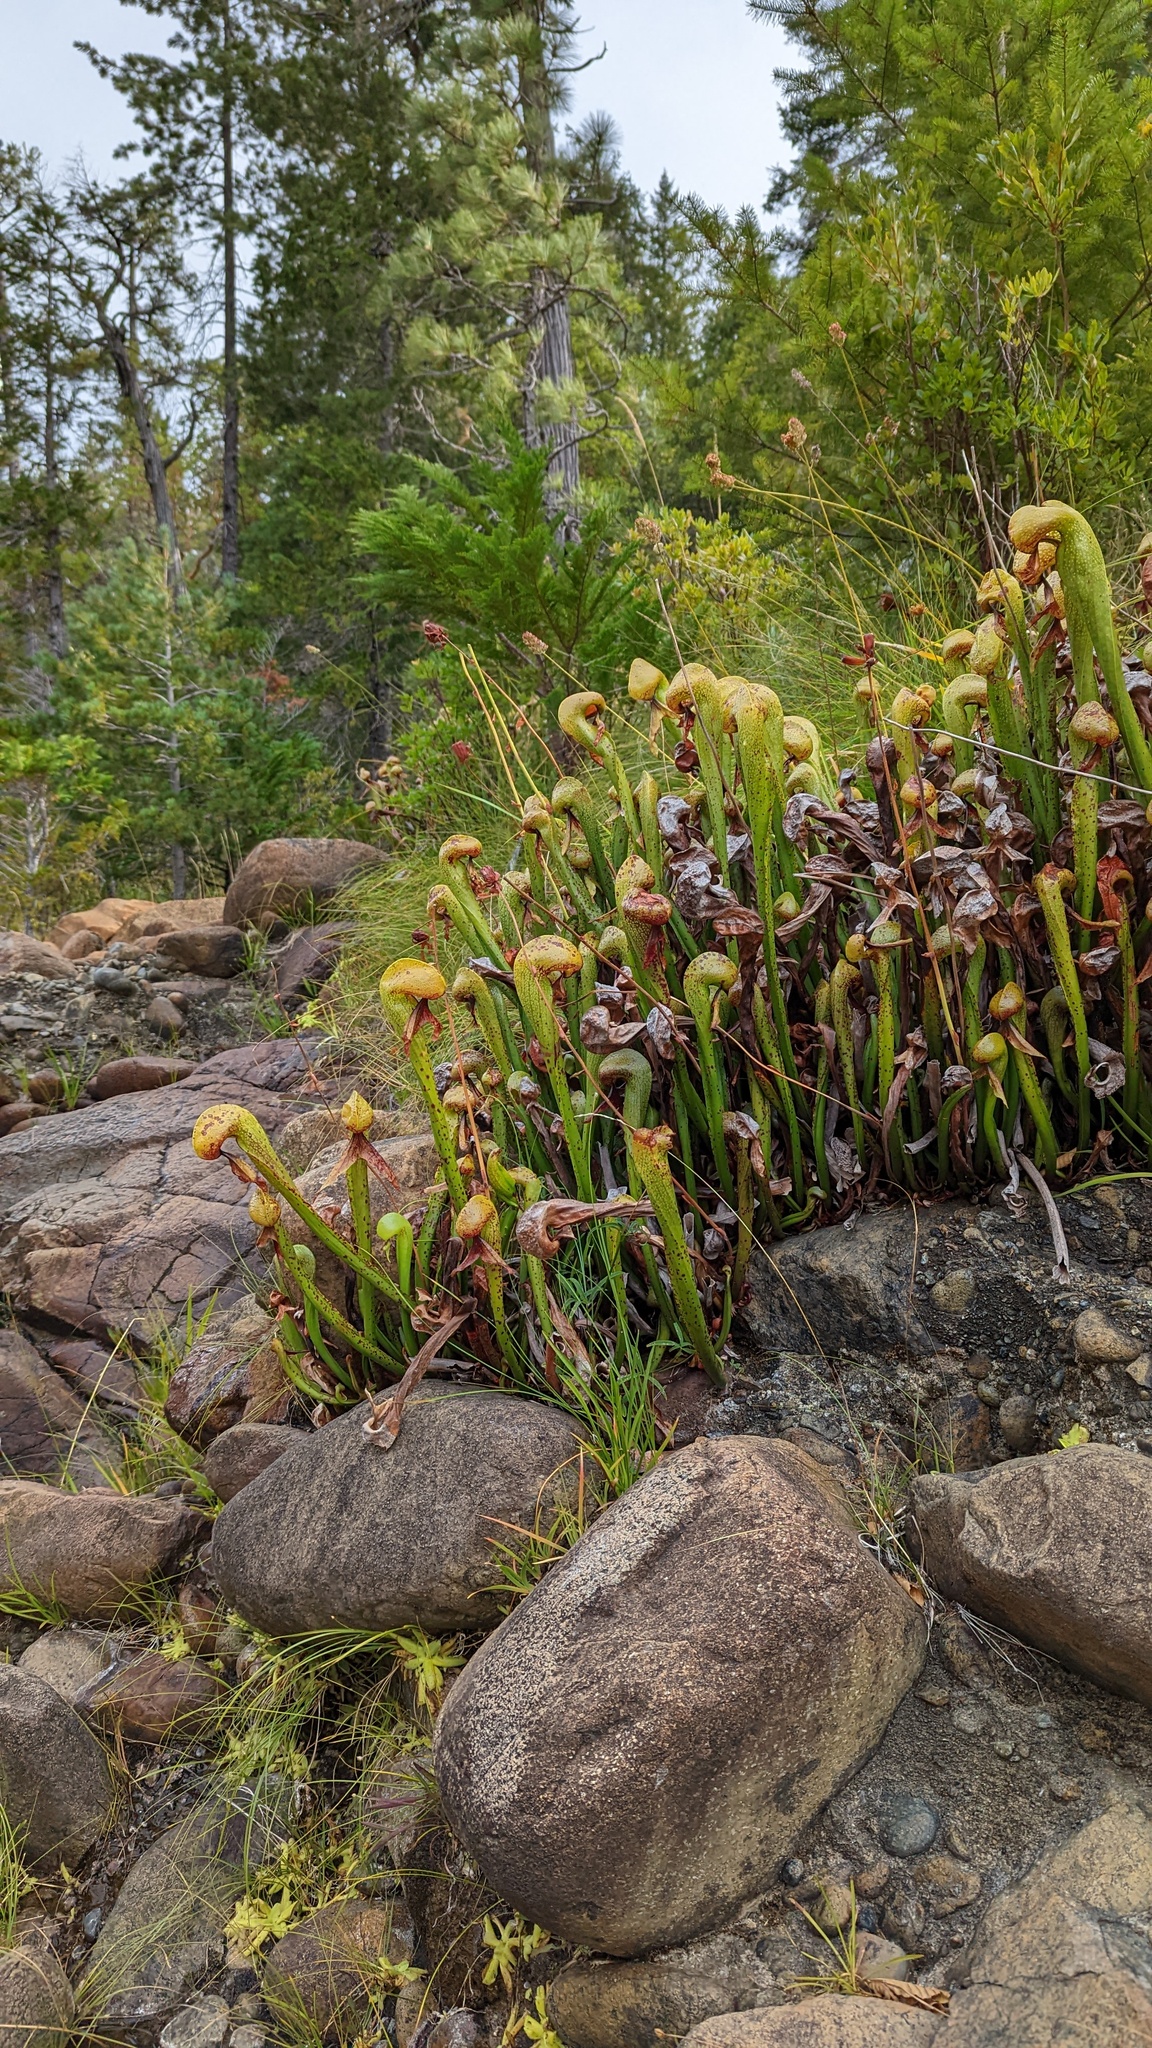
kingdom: Plantae
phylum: Tracheophyta
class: Magnoliopsida
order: Ericales
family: Sarraceniaceae
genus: Darlingtonia
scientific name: Darlingtonia californica
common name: California pitcher plant
